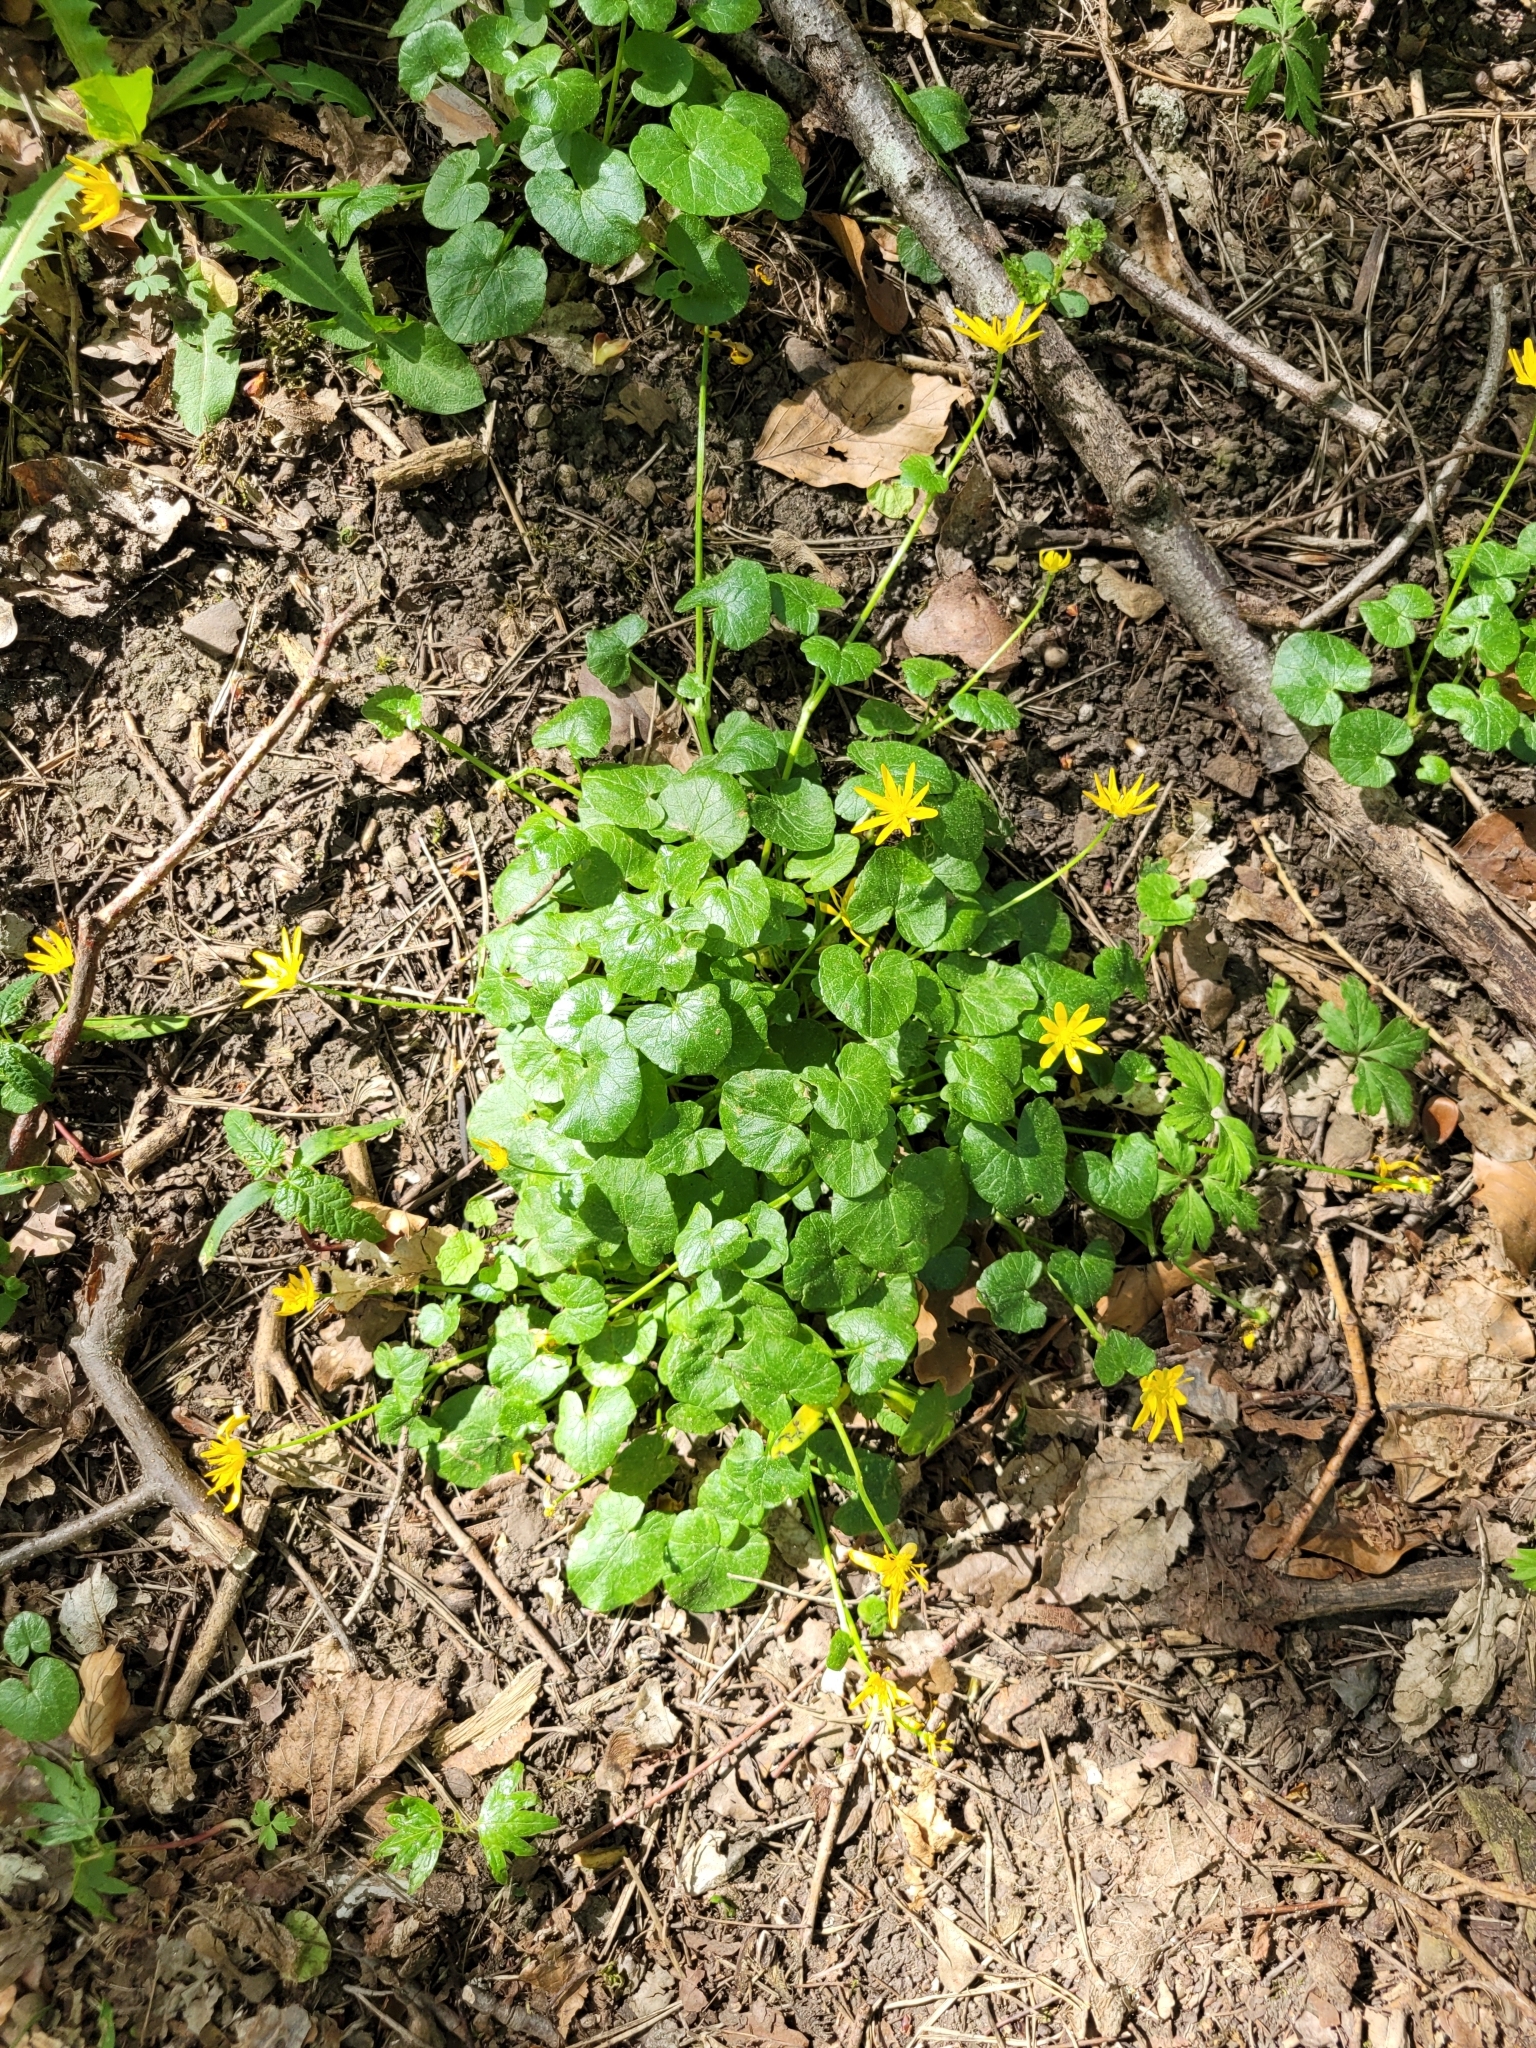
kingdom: Plantae
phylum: Tracheophyta
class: Magnoliopsida
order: Ranunculales
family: Ranunculaceae
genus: Ficaria
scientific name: Ficaria verna
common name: Lesser celandine
